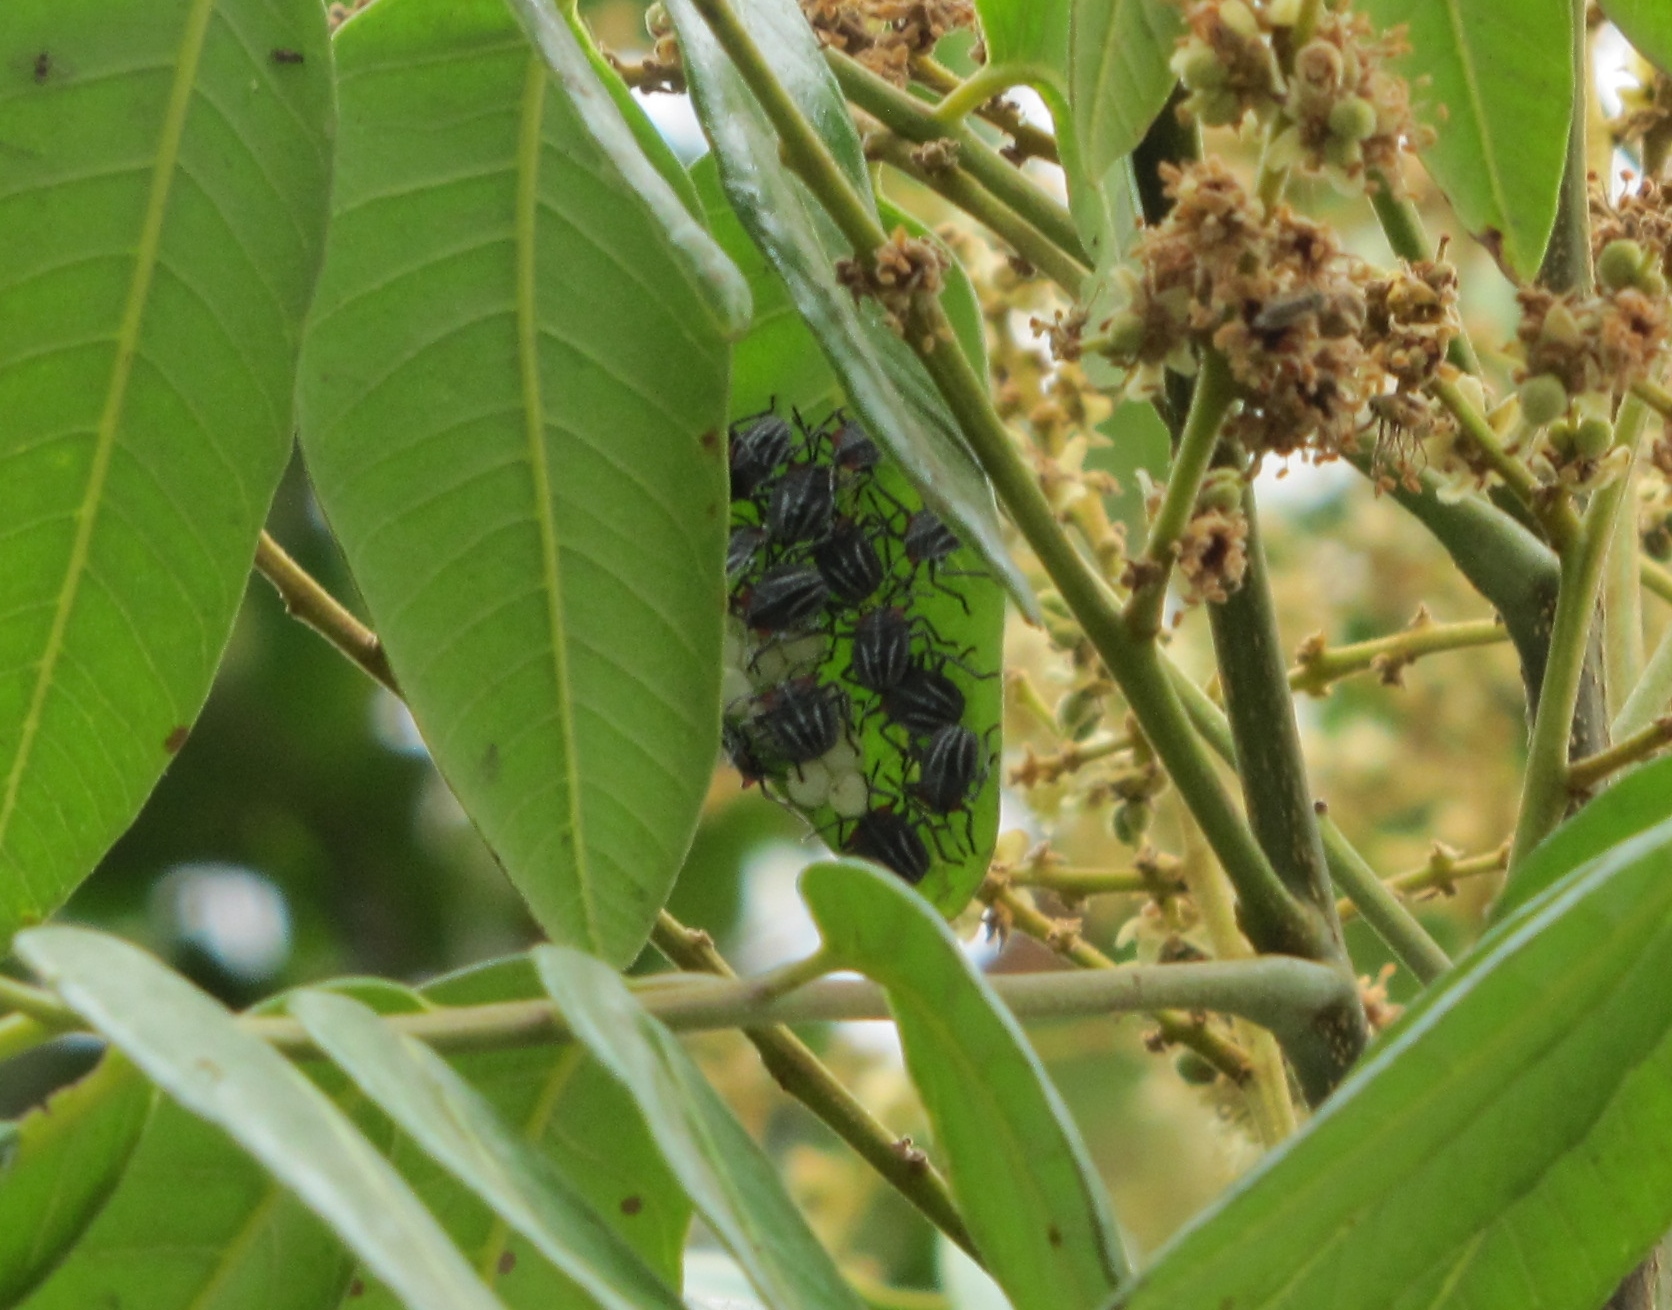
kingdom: Animalia
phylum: Arthropoda
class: Insecta
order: Hemiptera
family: Tessaratomidae
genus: Tessaratoma
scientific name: Tessaratoma papillosa
